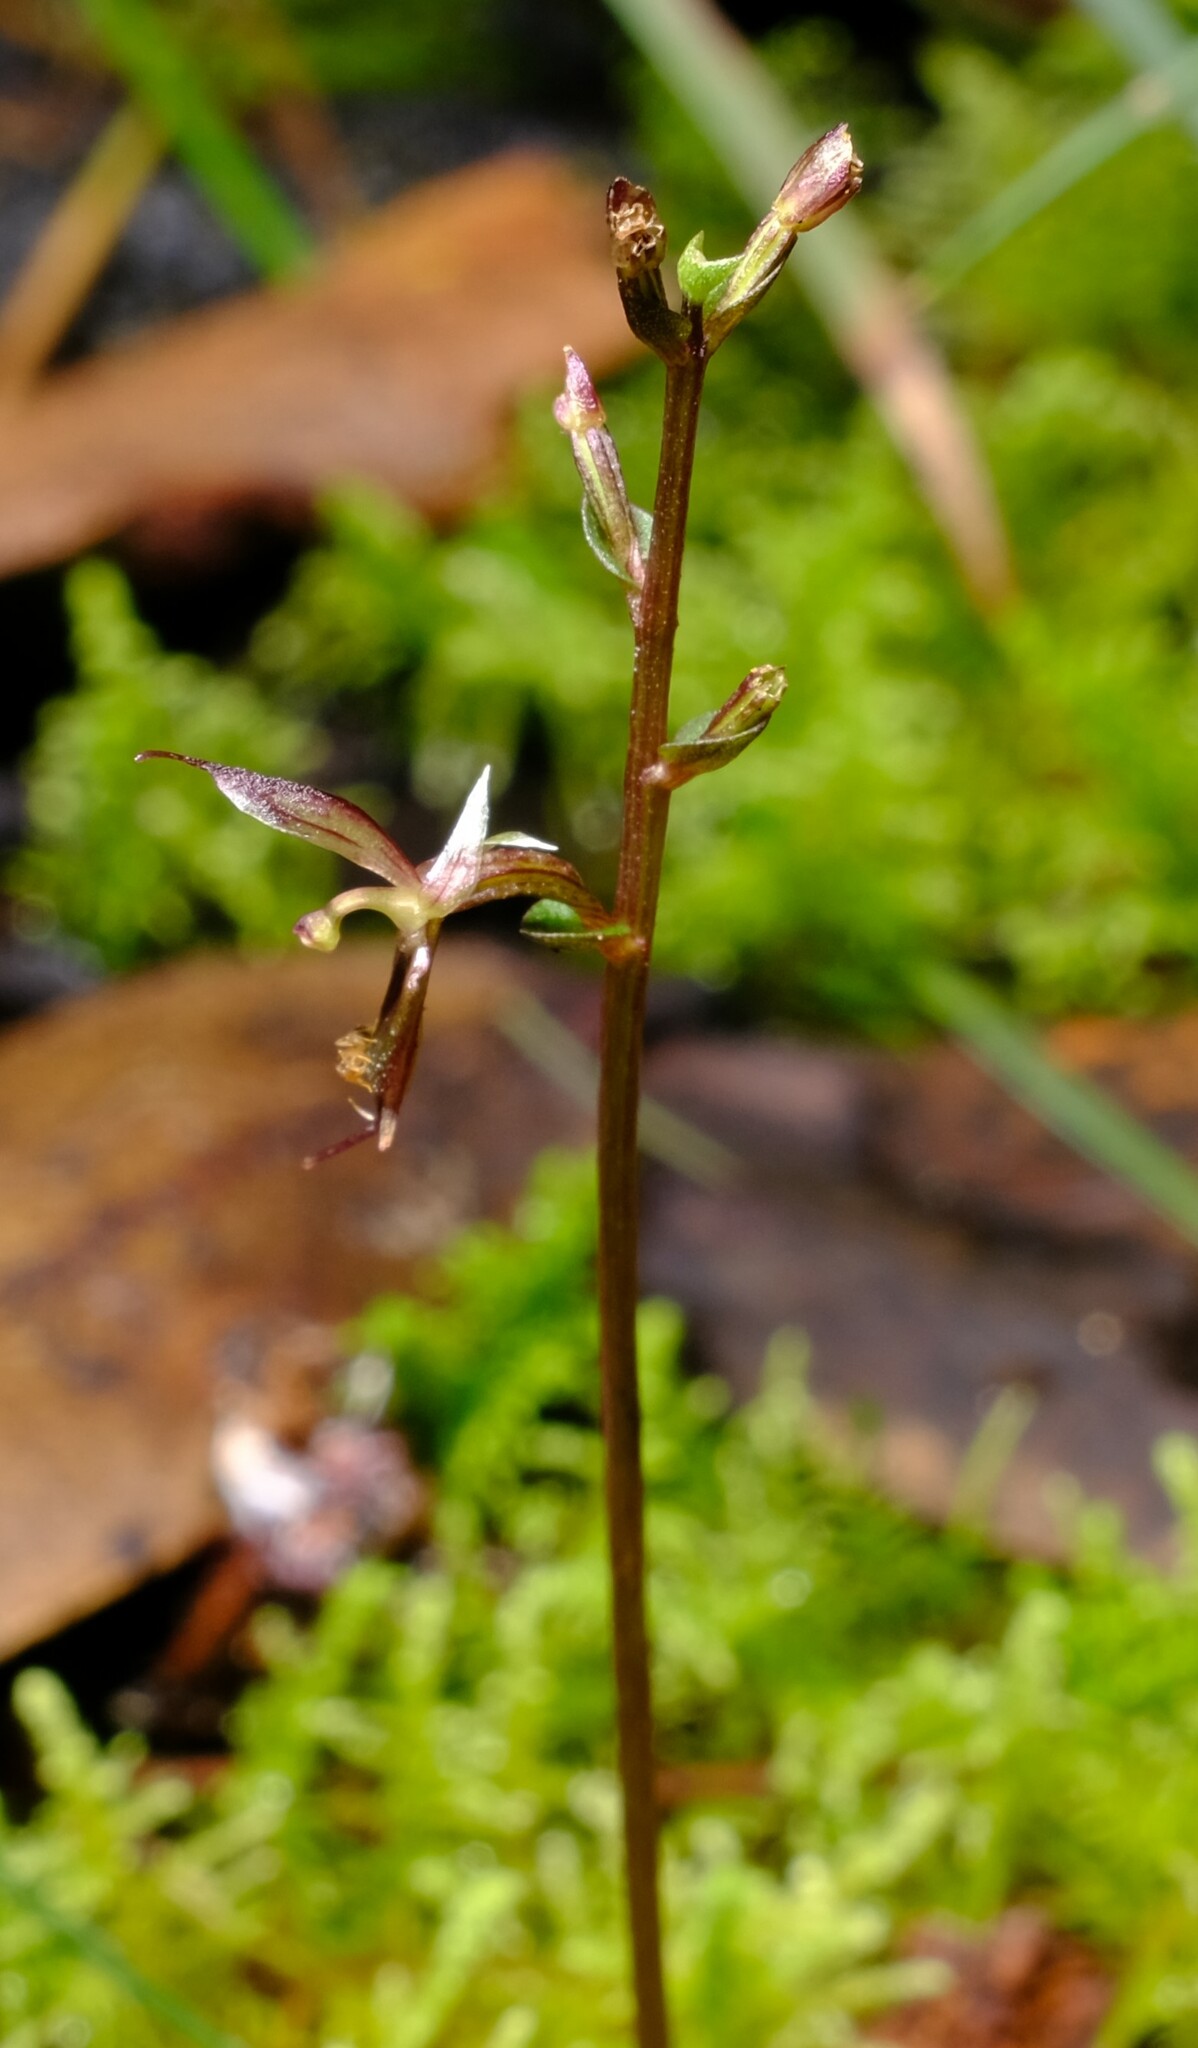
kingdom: Plantae
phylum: Tracheophyta
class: Liliopsida
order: Asparagales
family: Orchidaceae
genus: Acianthus
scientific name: Acianthus pusillus
